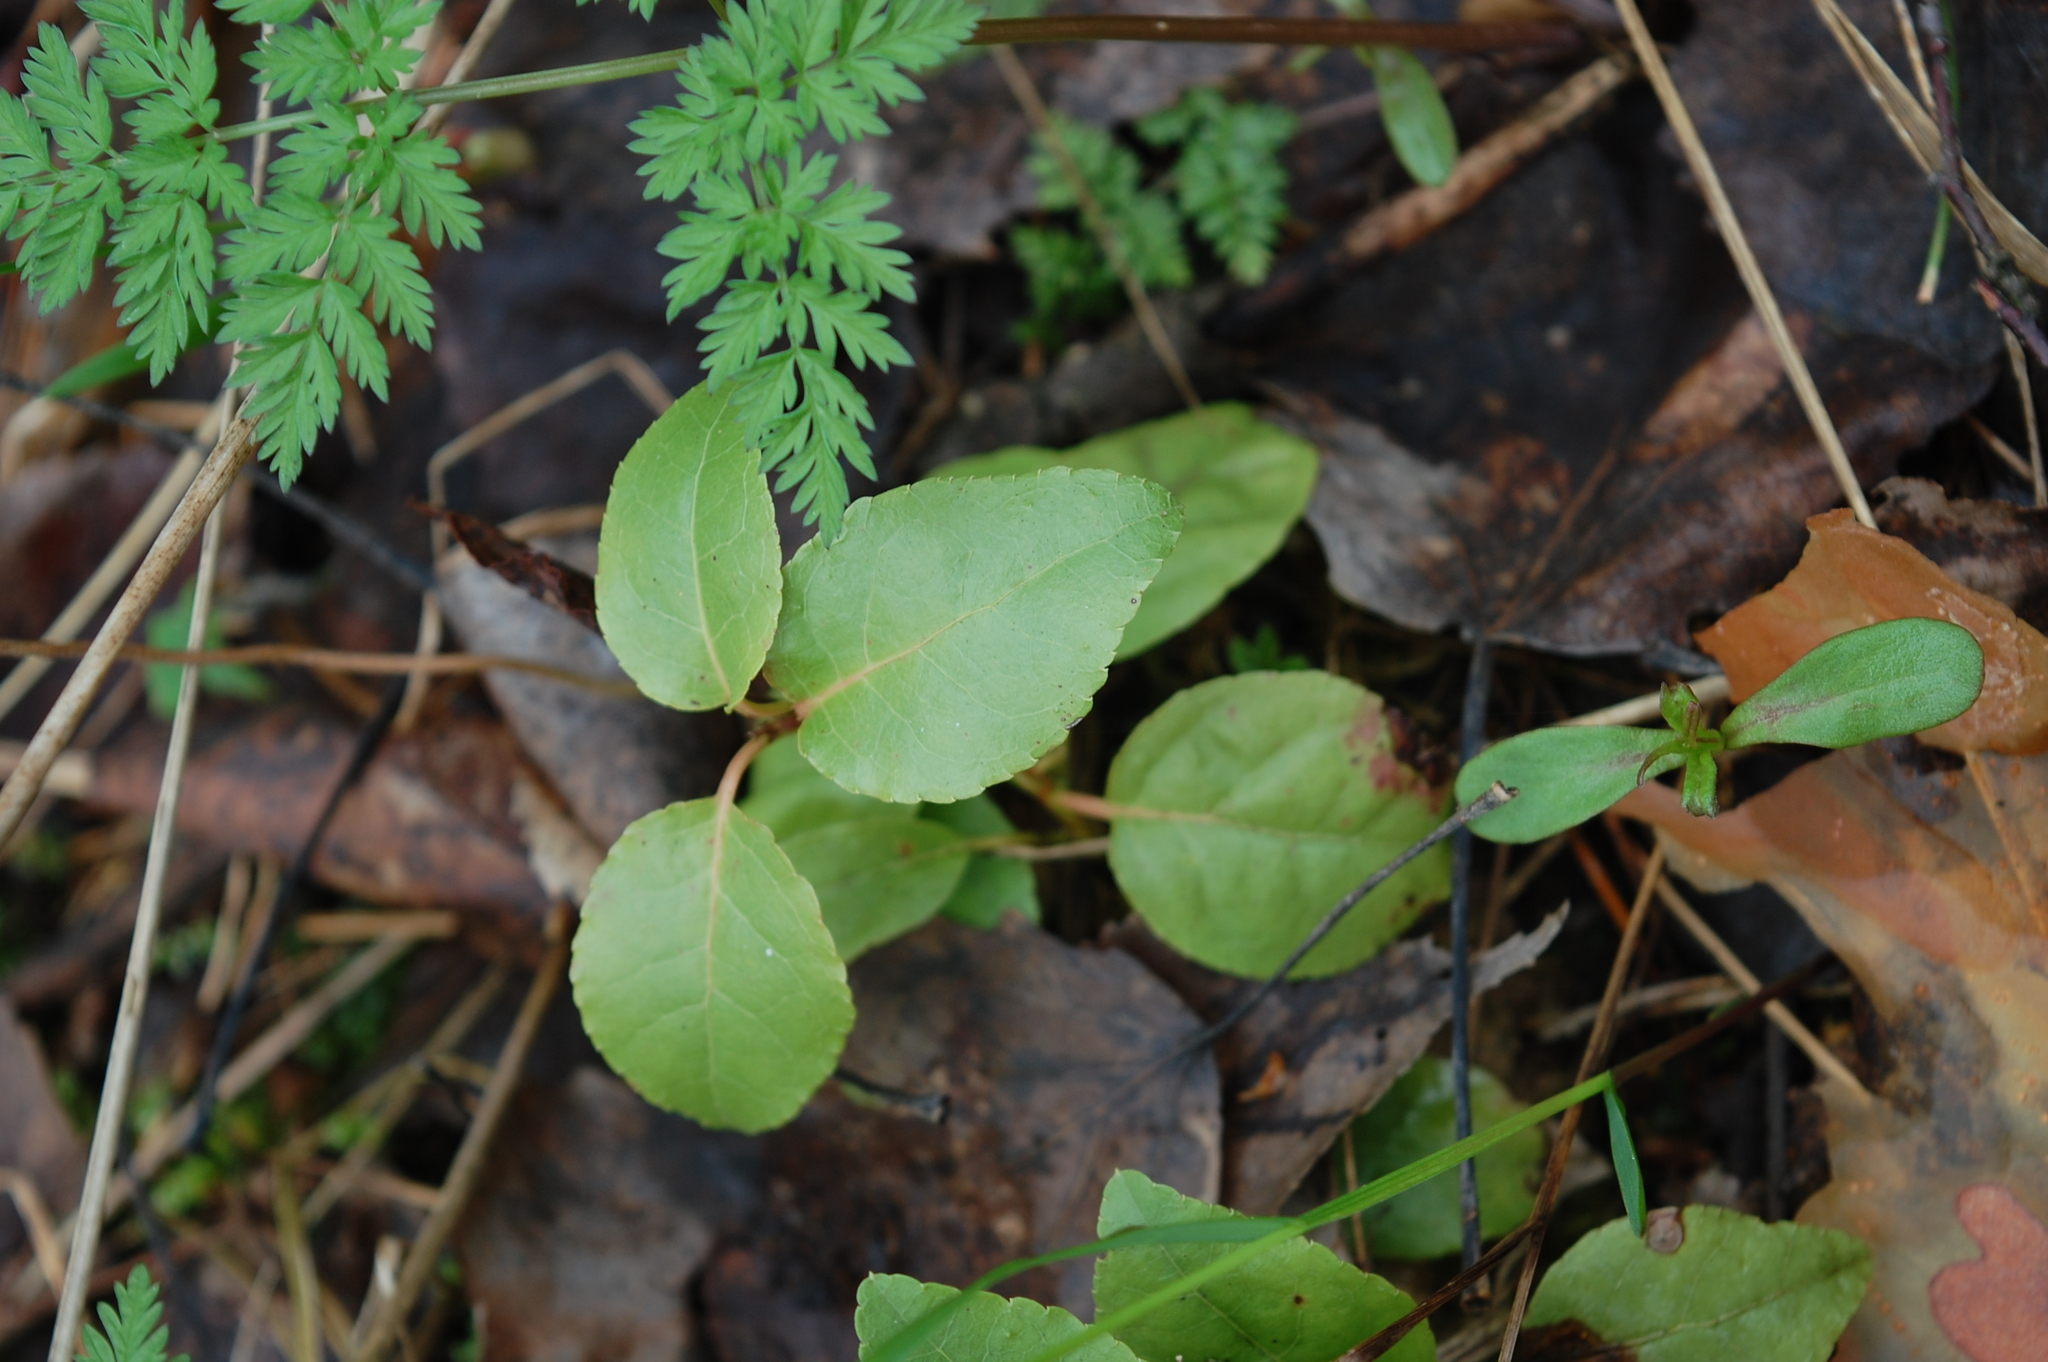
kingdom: Plantae
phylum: Tracheophyta
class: Magnoliopsida
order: Ericales
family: Ericaceae
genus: Orthilia
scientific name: Orthilia secunda
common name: One-sided orthilia
